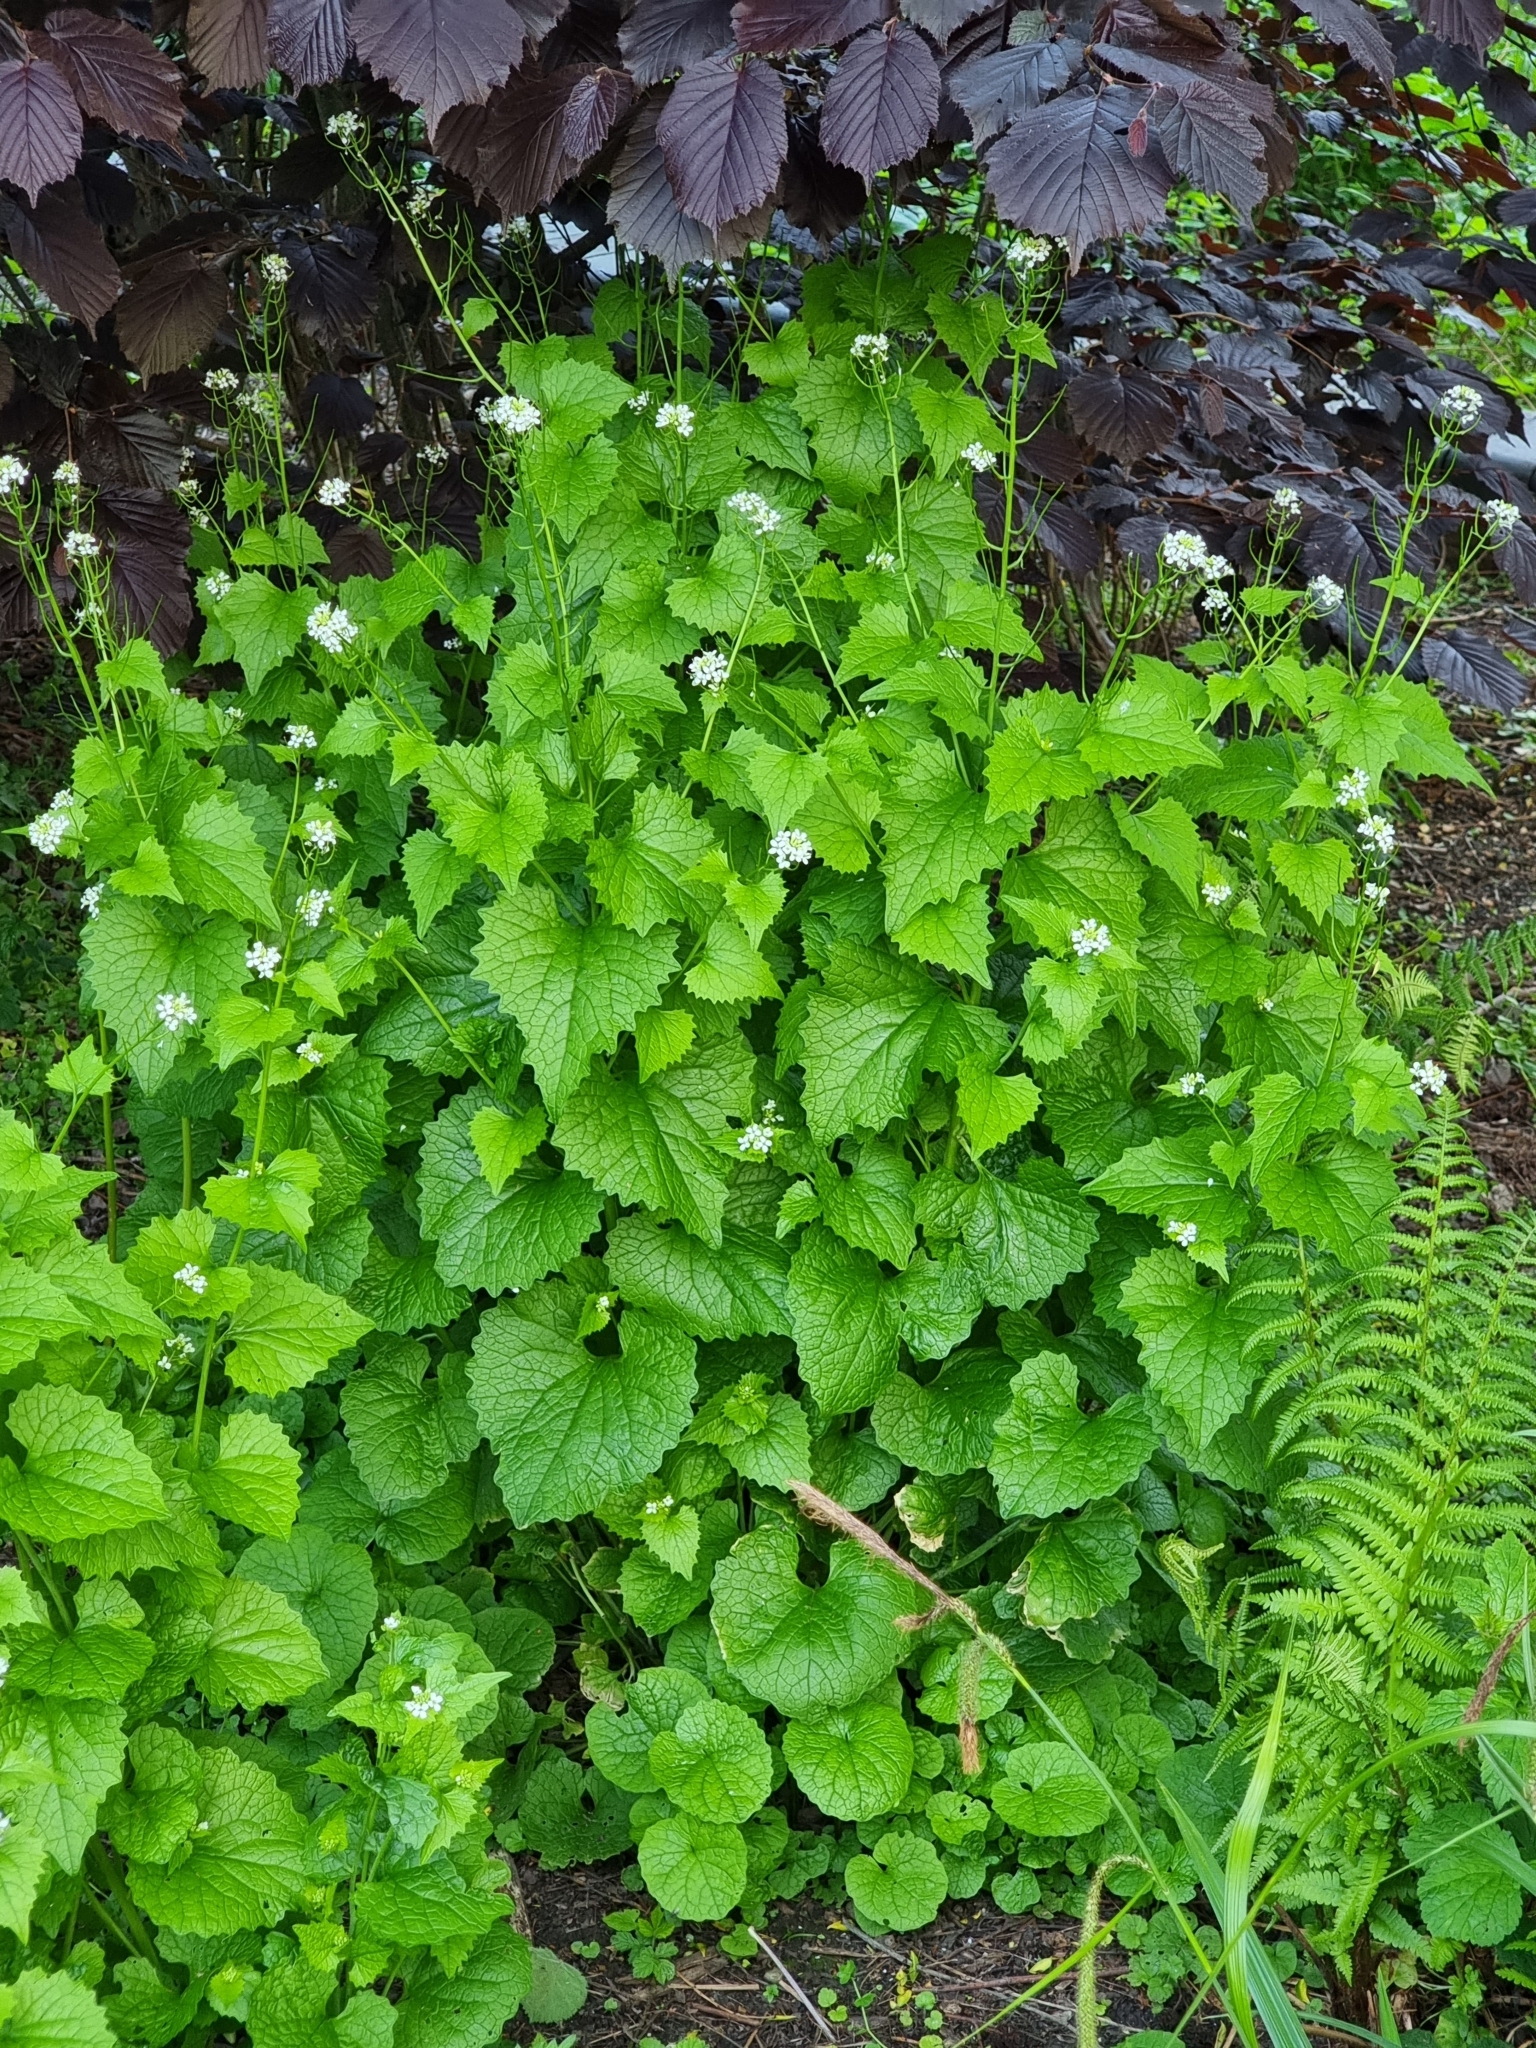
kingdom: Plantae
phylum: Tracheophyta
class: Magnoliopsida
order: Brassicales
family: Brassicaceae
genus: Alliaria
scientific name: Alliaria petiolata
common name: Garlic mustard
